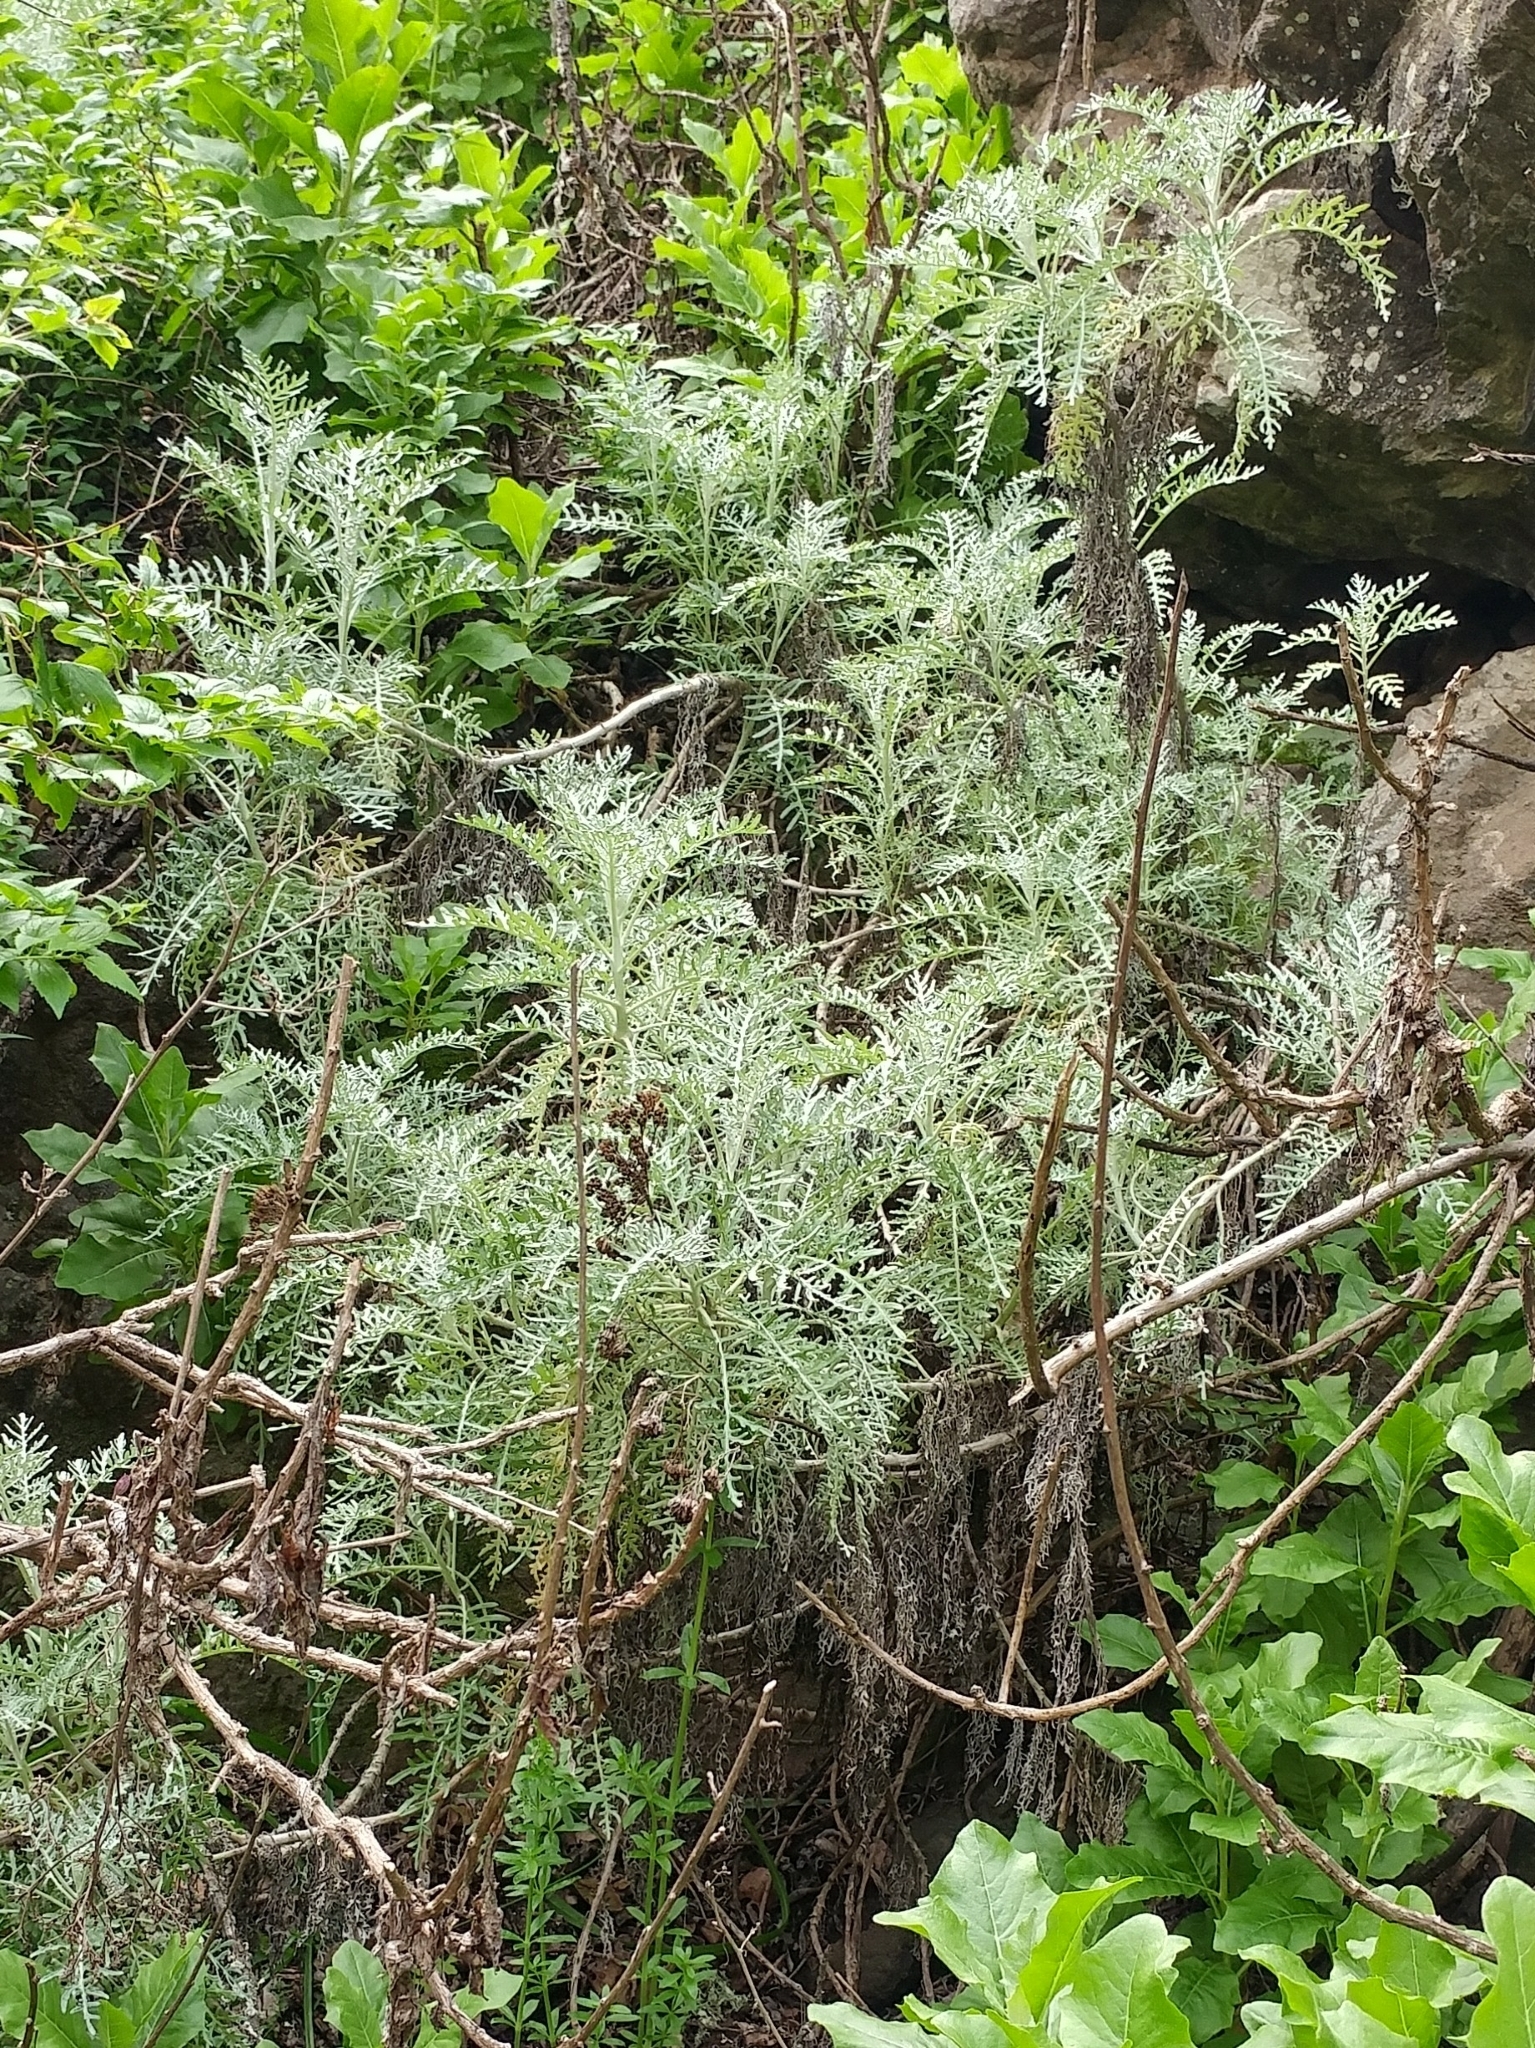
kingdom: Plantae
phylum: Tracheophyta
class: Magnoliopsida
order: Asterales
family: Asteraceae
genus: Constancea
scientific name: Constancea nevinii
